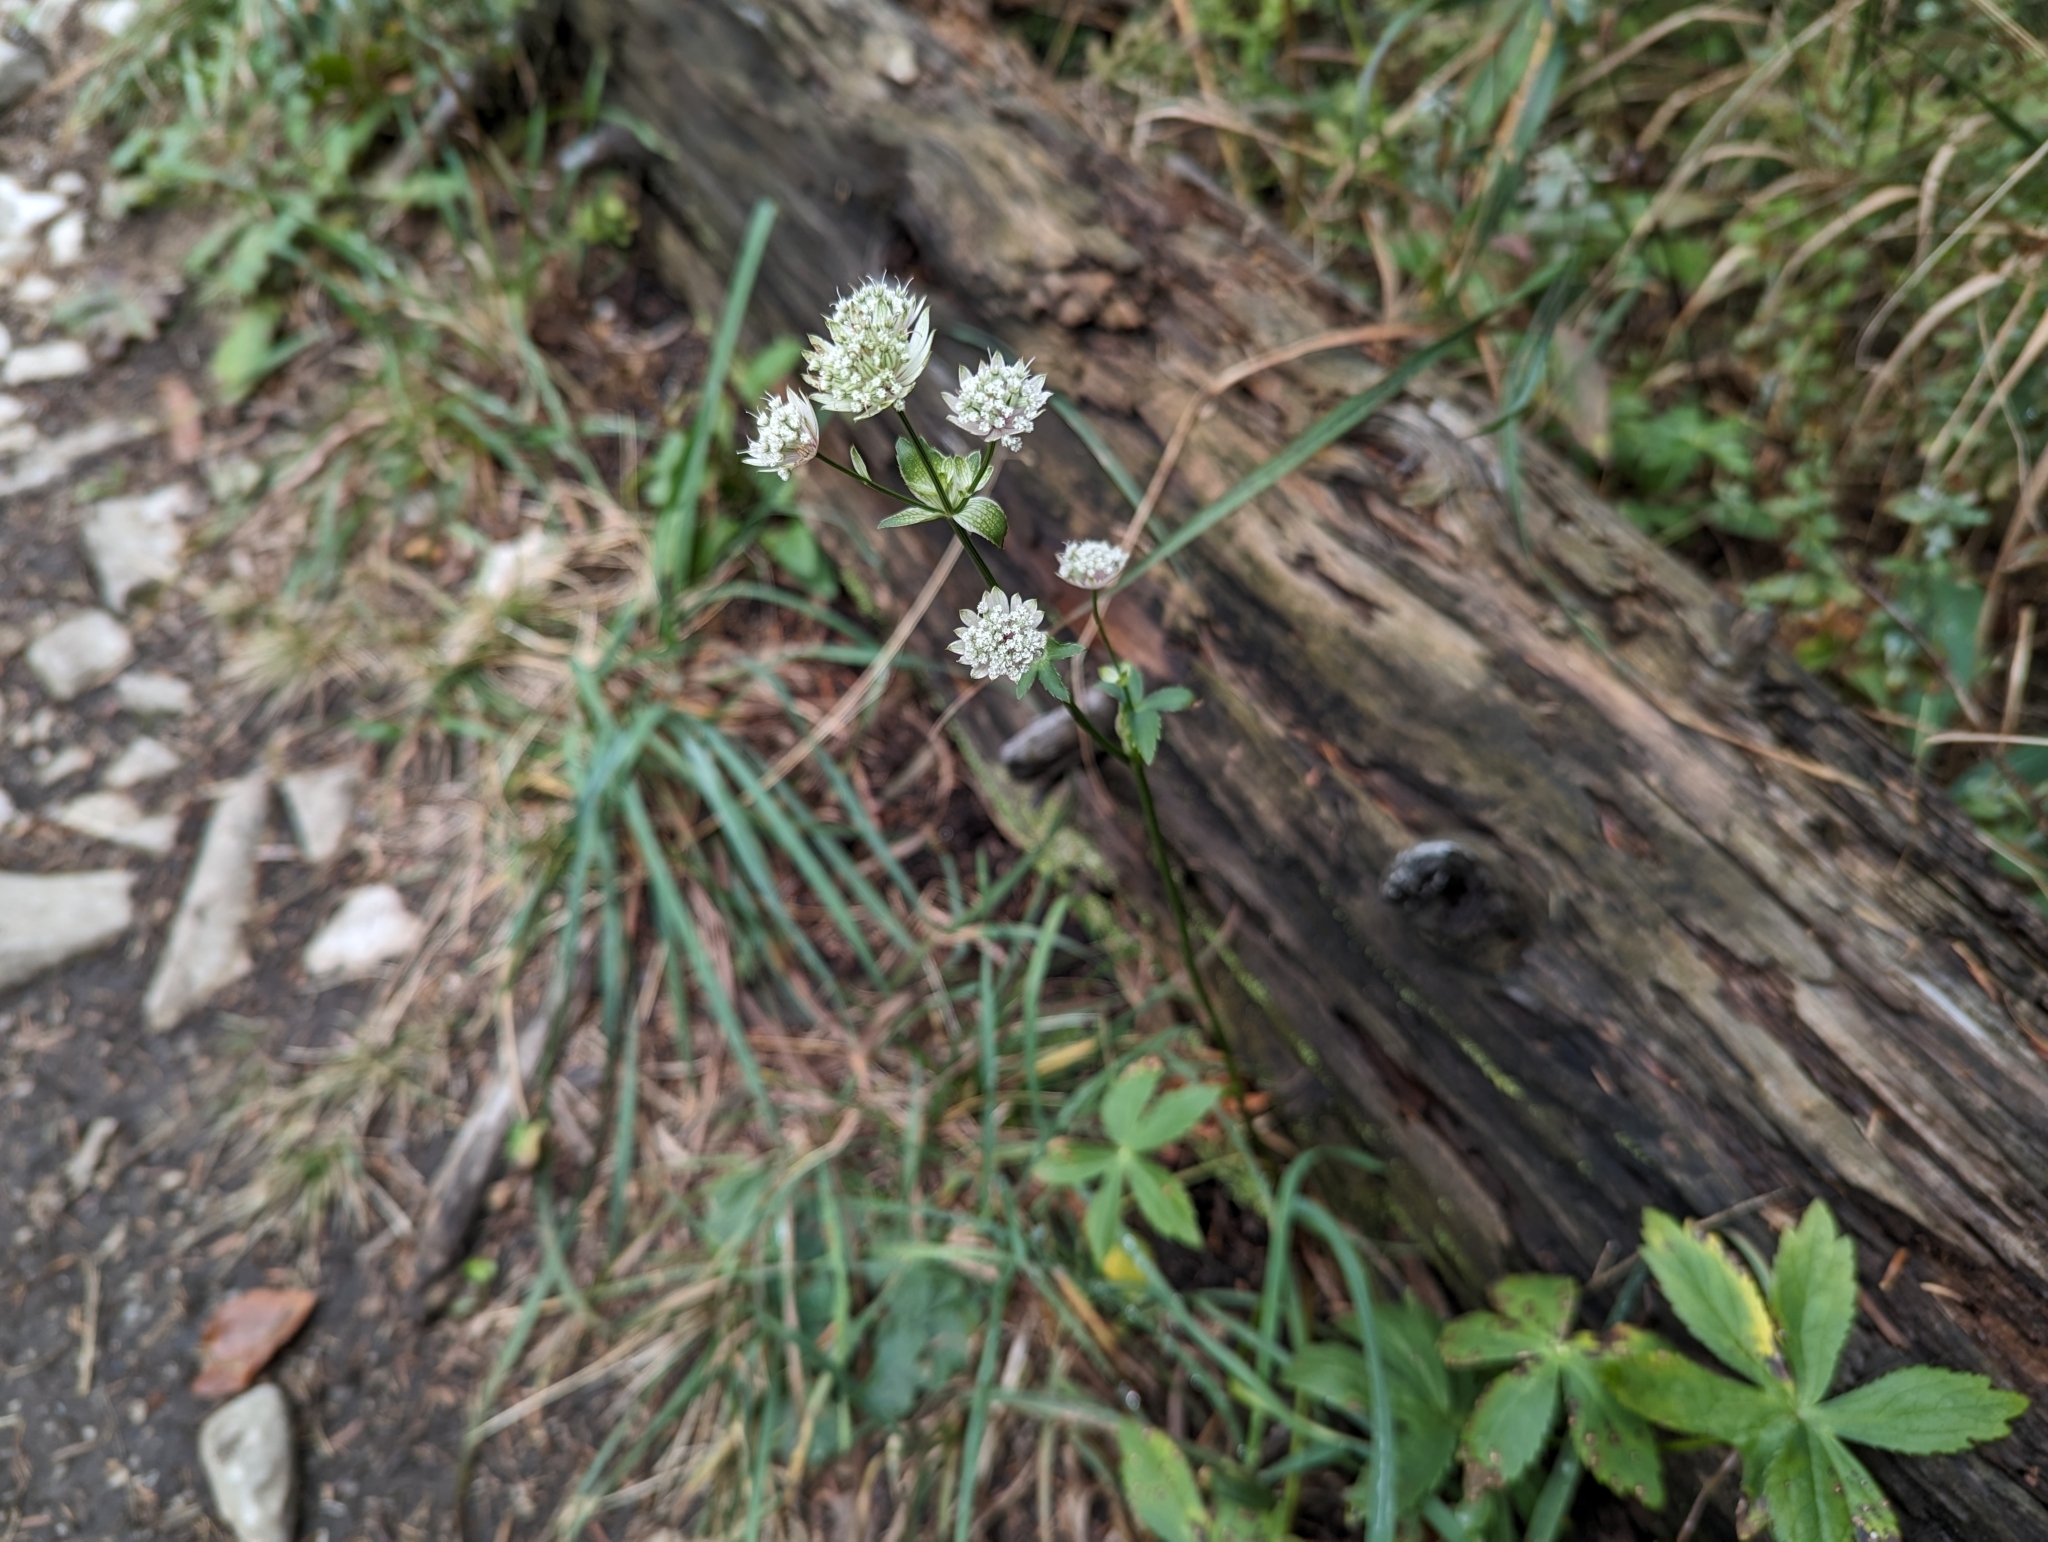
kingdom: Plantae
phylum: Tracheophyta
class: Magnoliopsida
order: Apiales
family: Apiaceae
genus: Astrantia
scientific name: Astrantia major
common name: Greater masterwort
